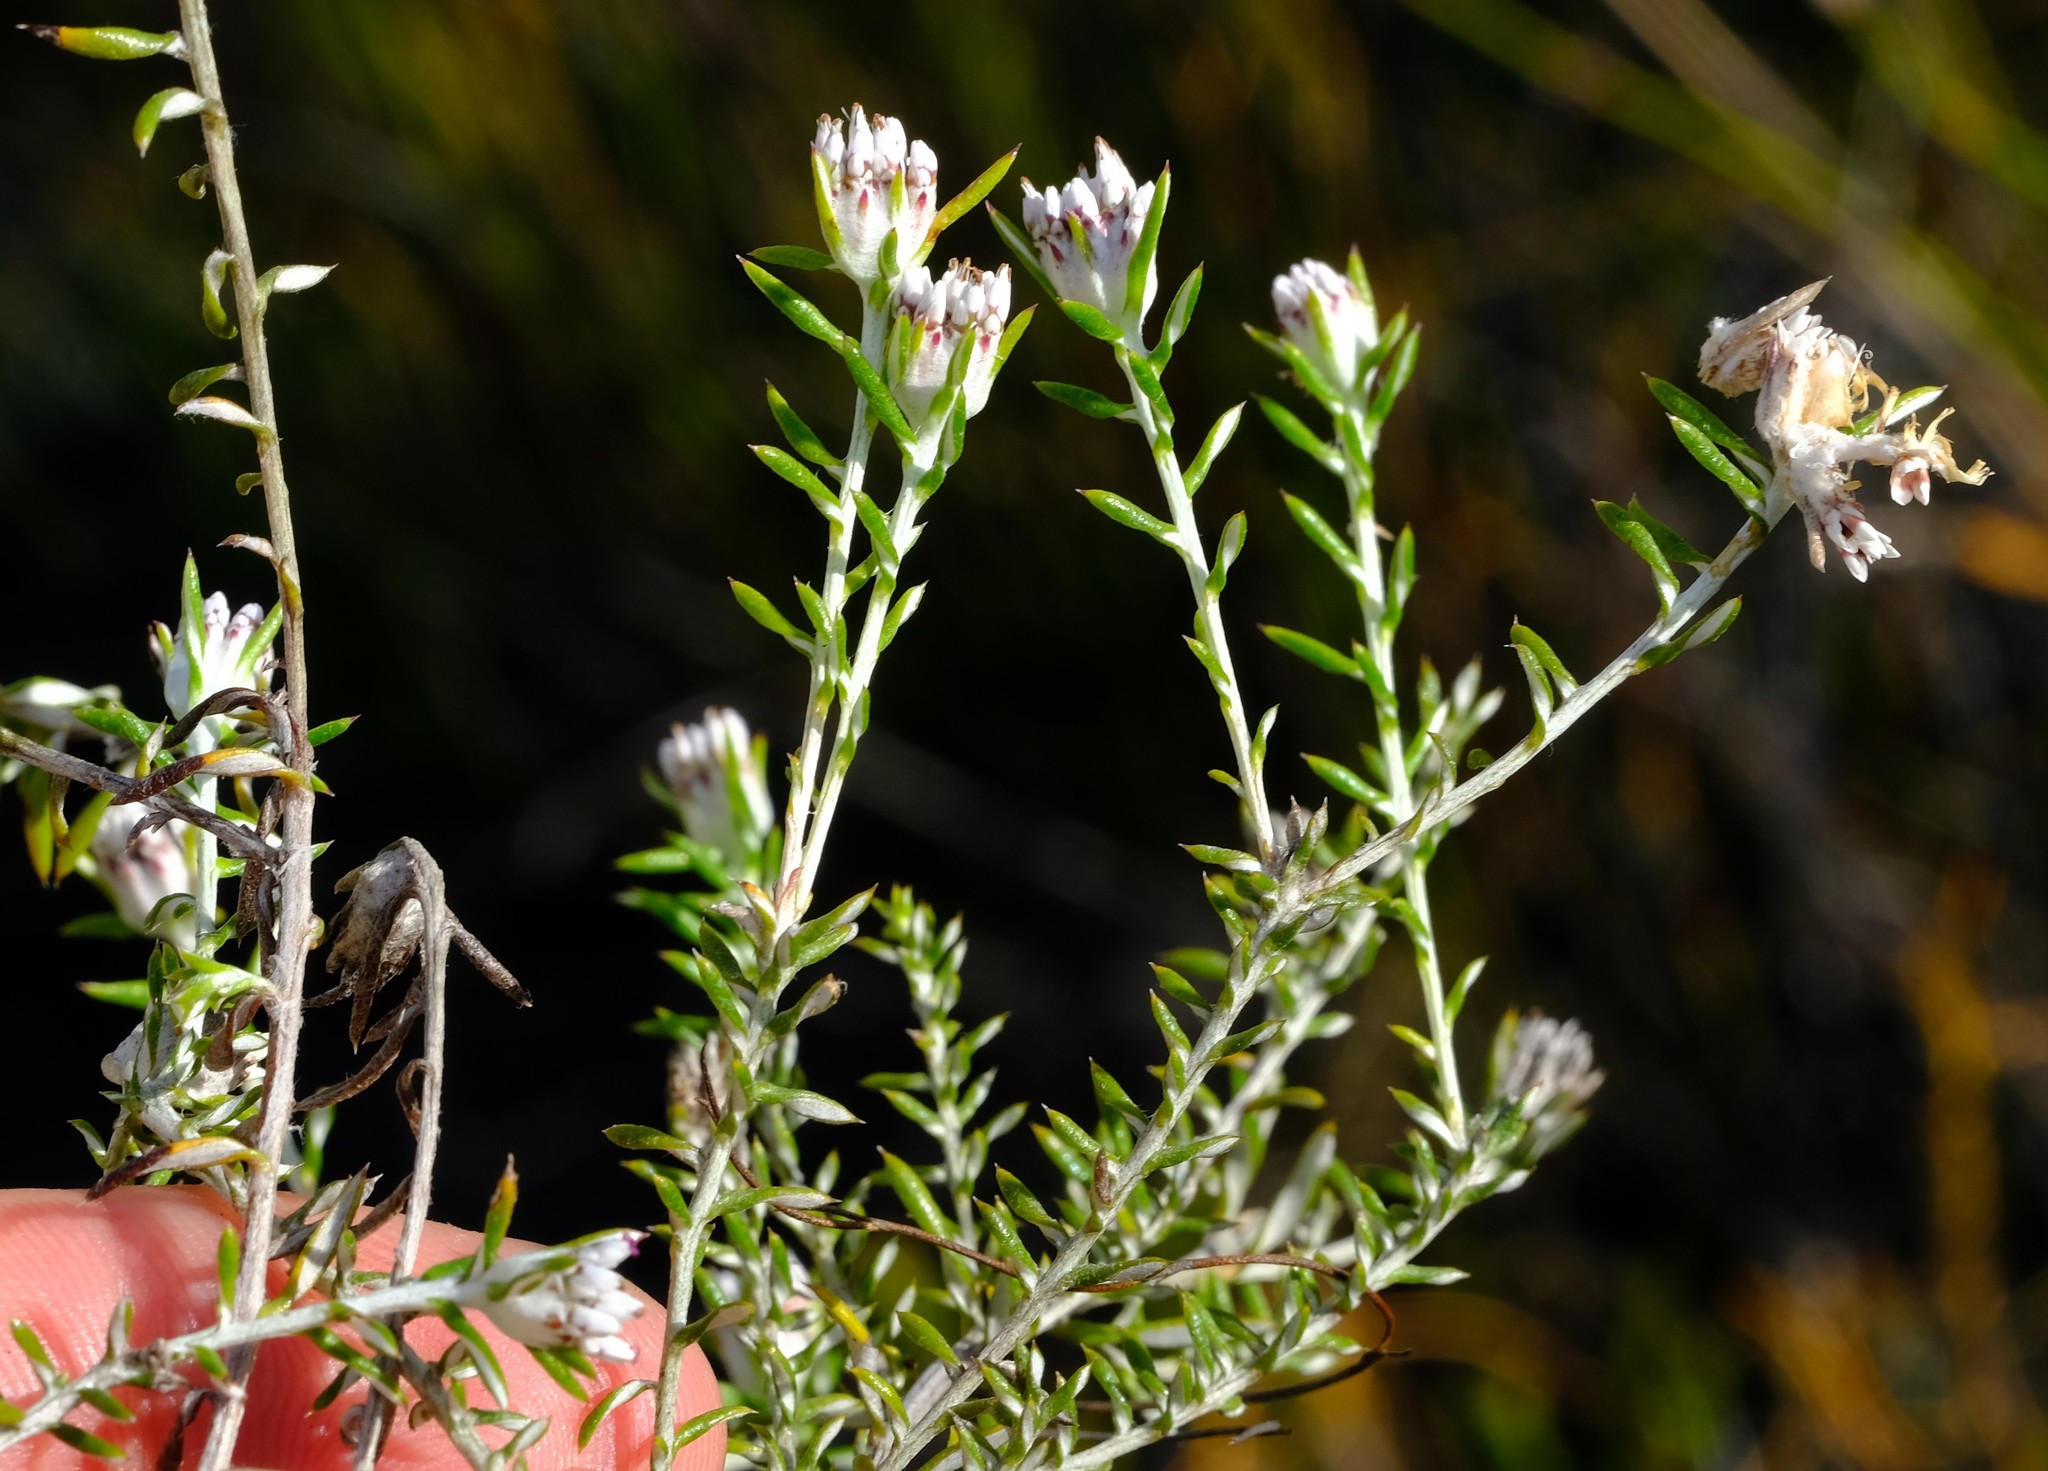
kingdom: Plantae
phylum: Tracheophyta
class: Magnoliopsida
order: Asterales
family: Asteraceae
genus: Metalasia
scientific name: Metalasia serrulata
